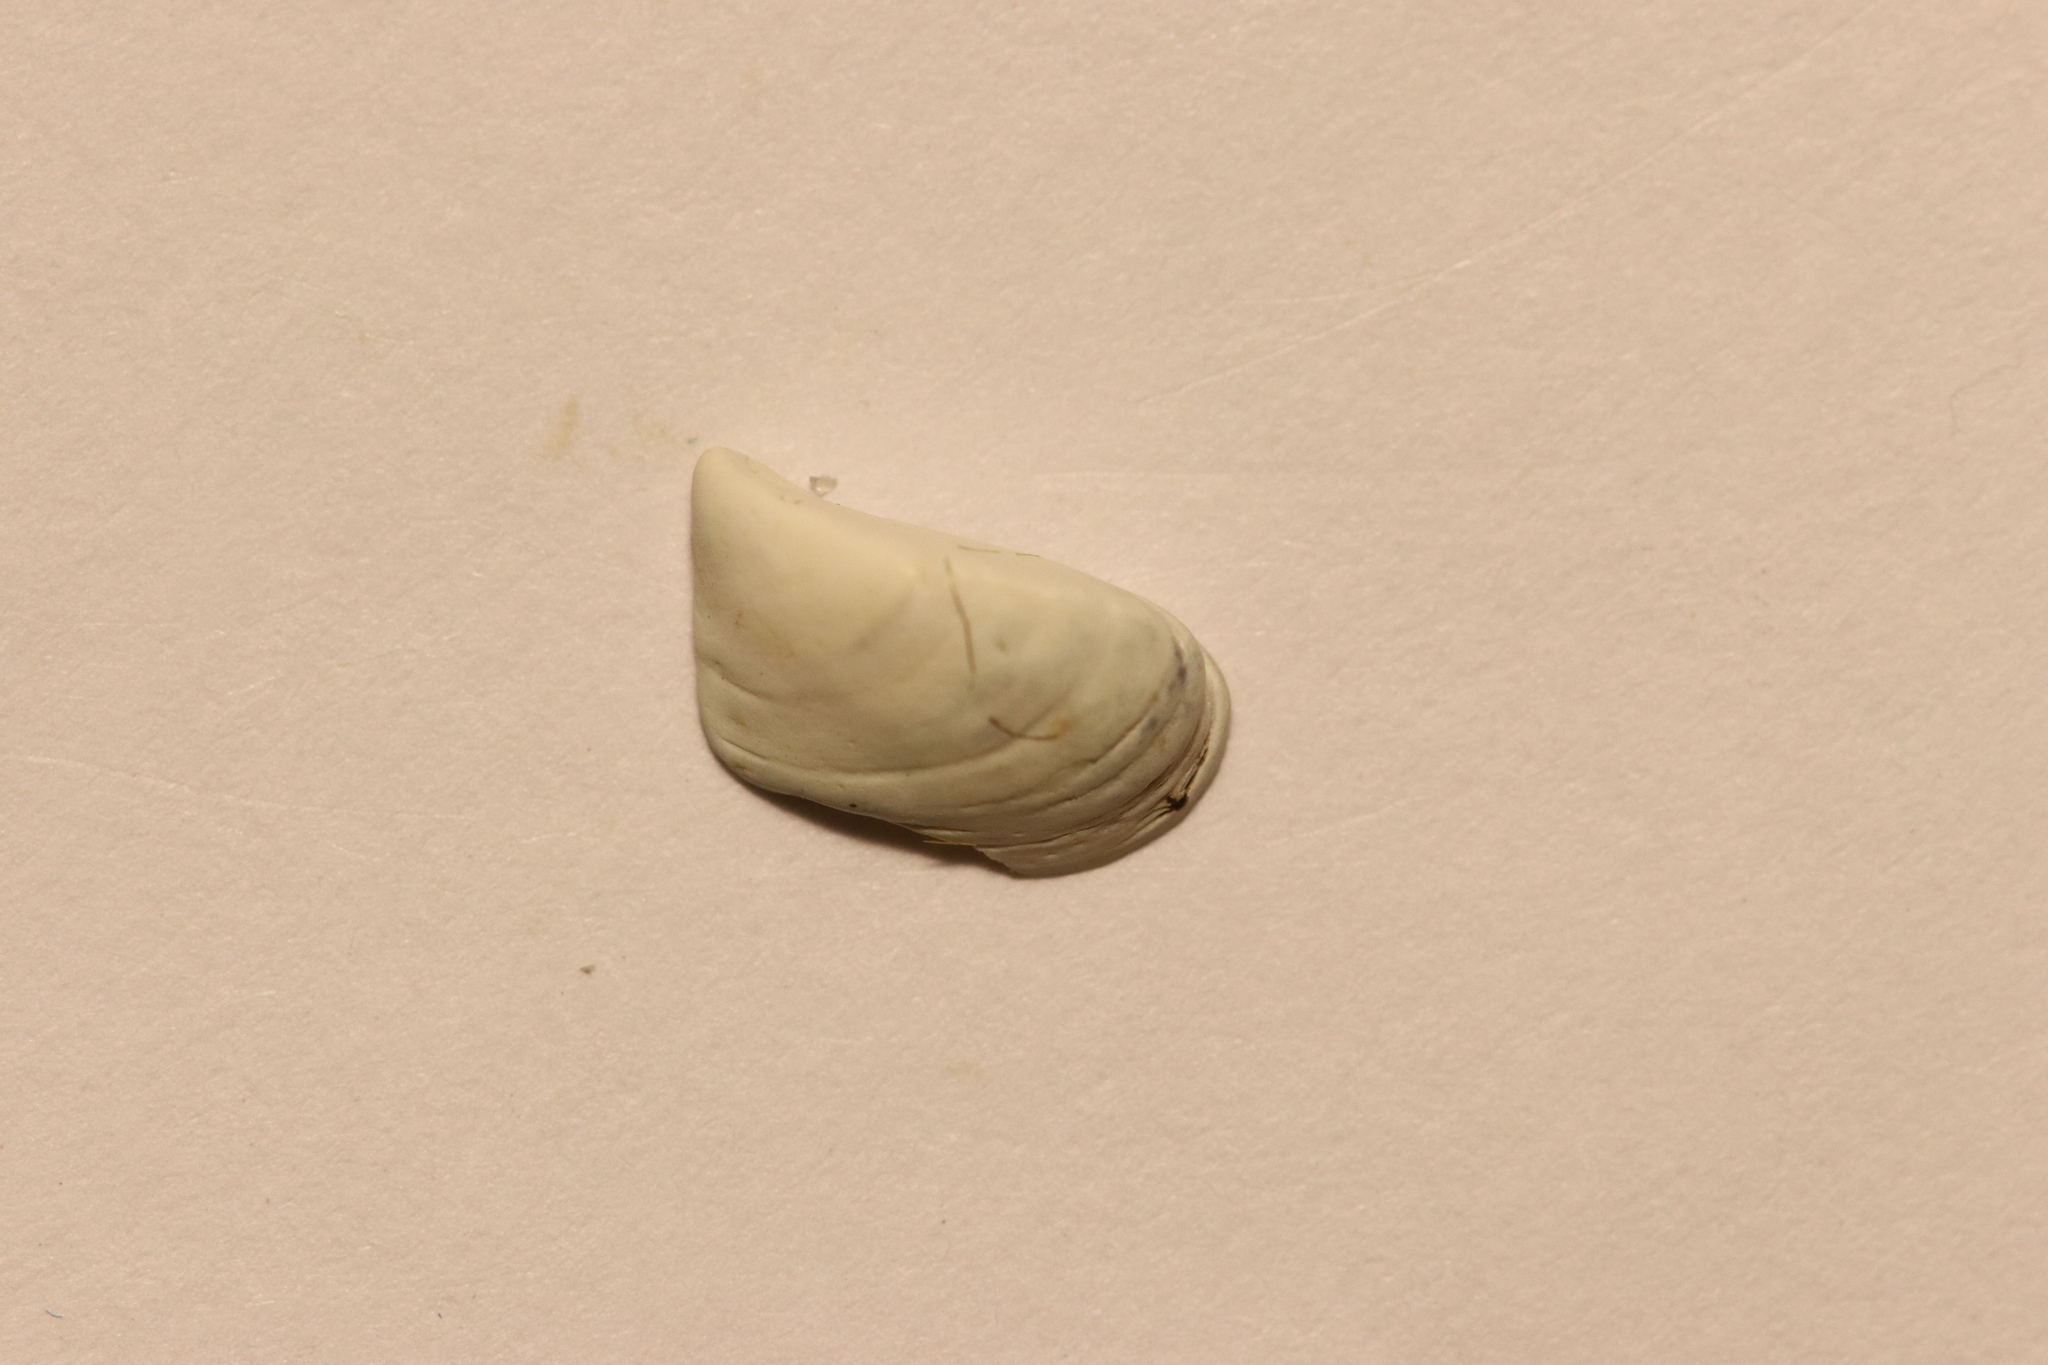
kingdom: Animalia
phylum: Mollusca
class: Bivalvia
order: Myida
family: Dreissenidae
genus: Dreissena
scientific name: Dreissena polymorpha
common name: Zebra mussel
